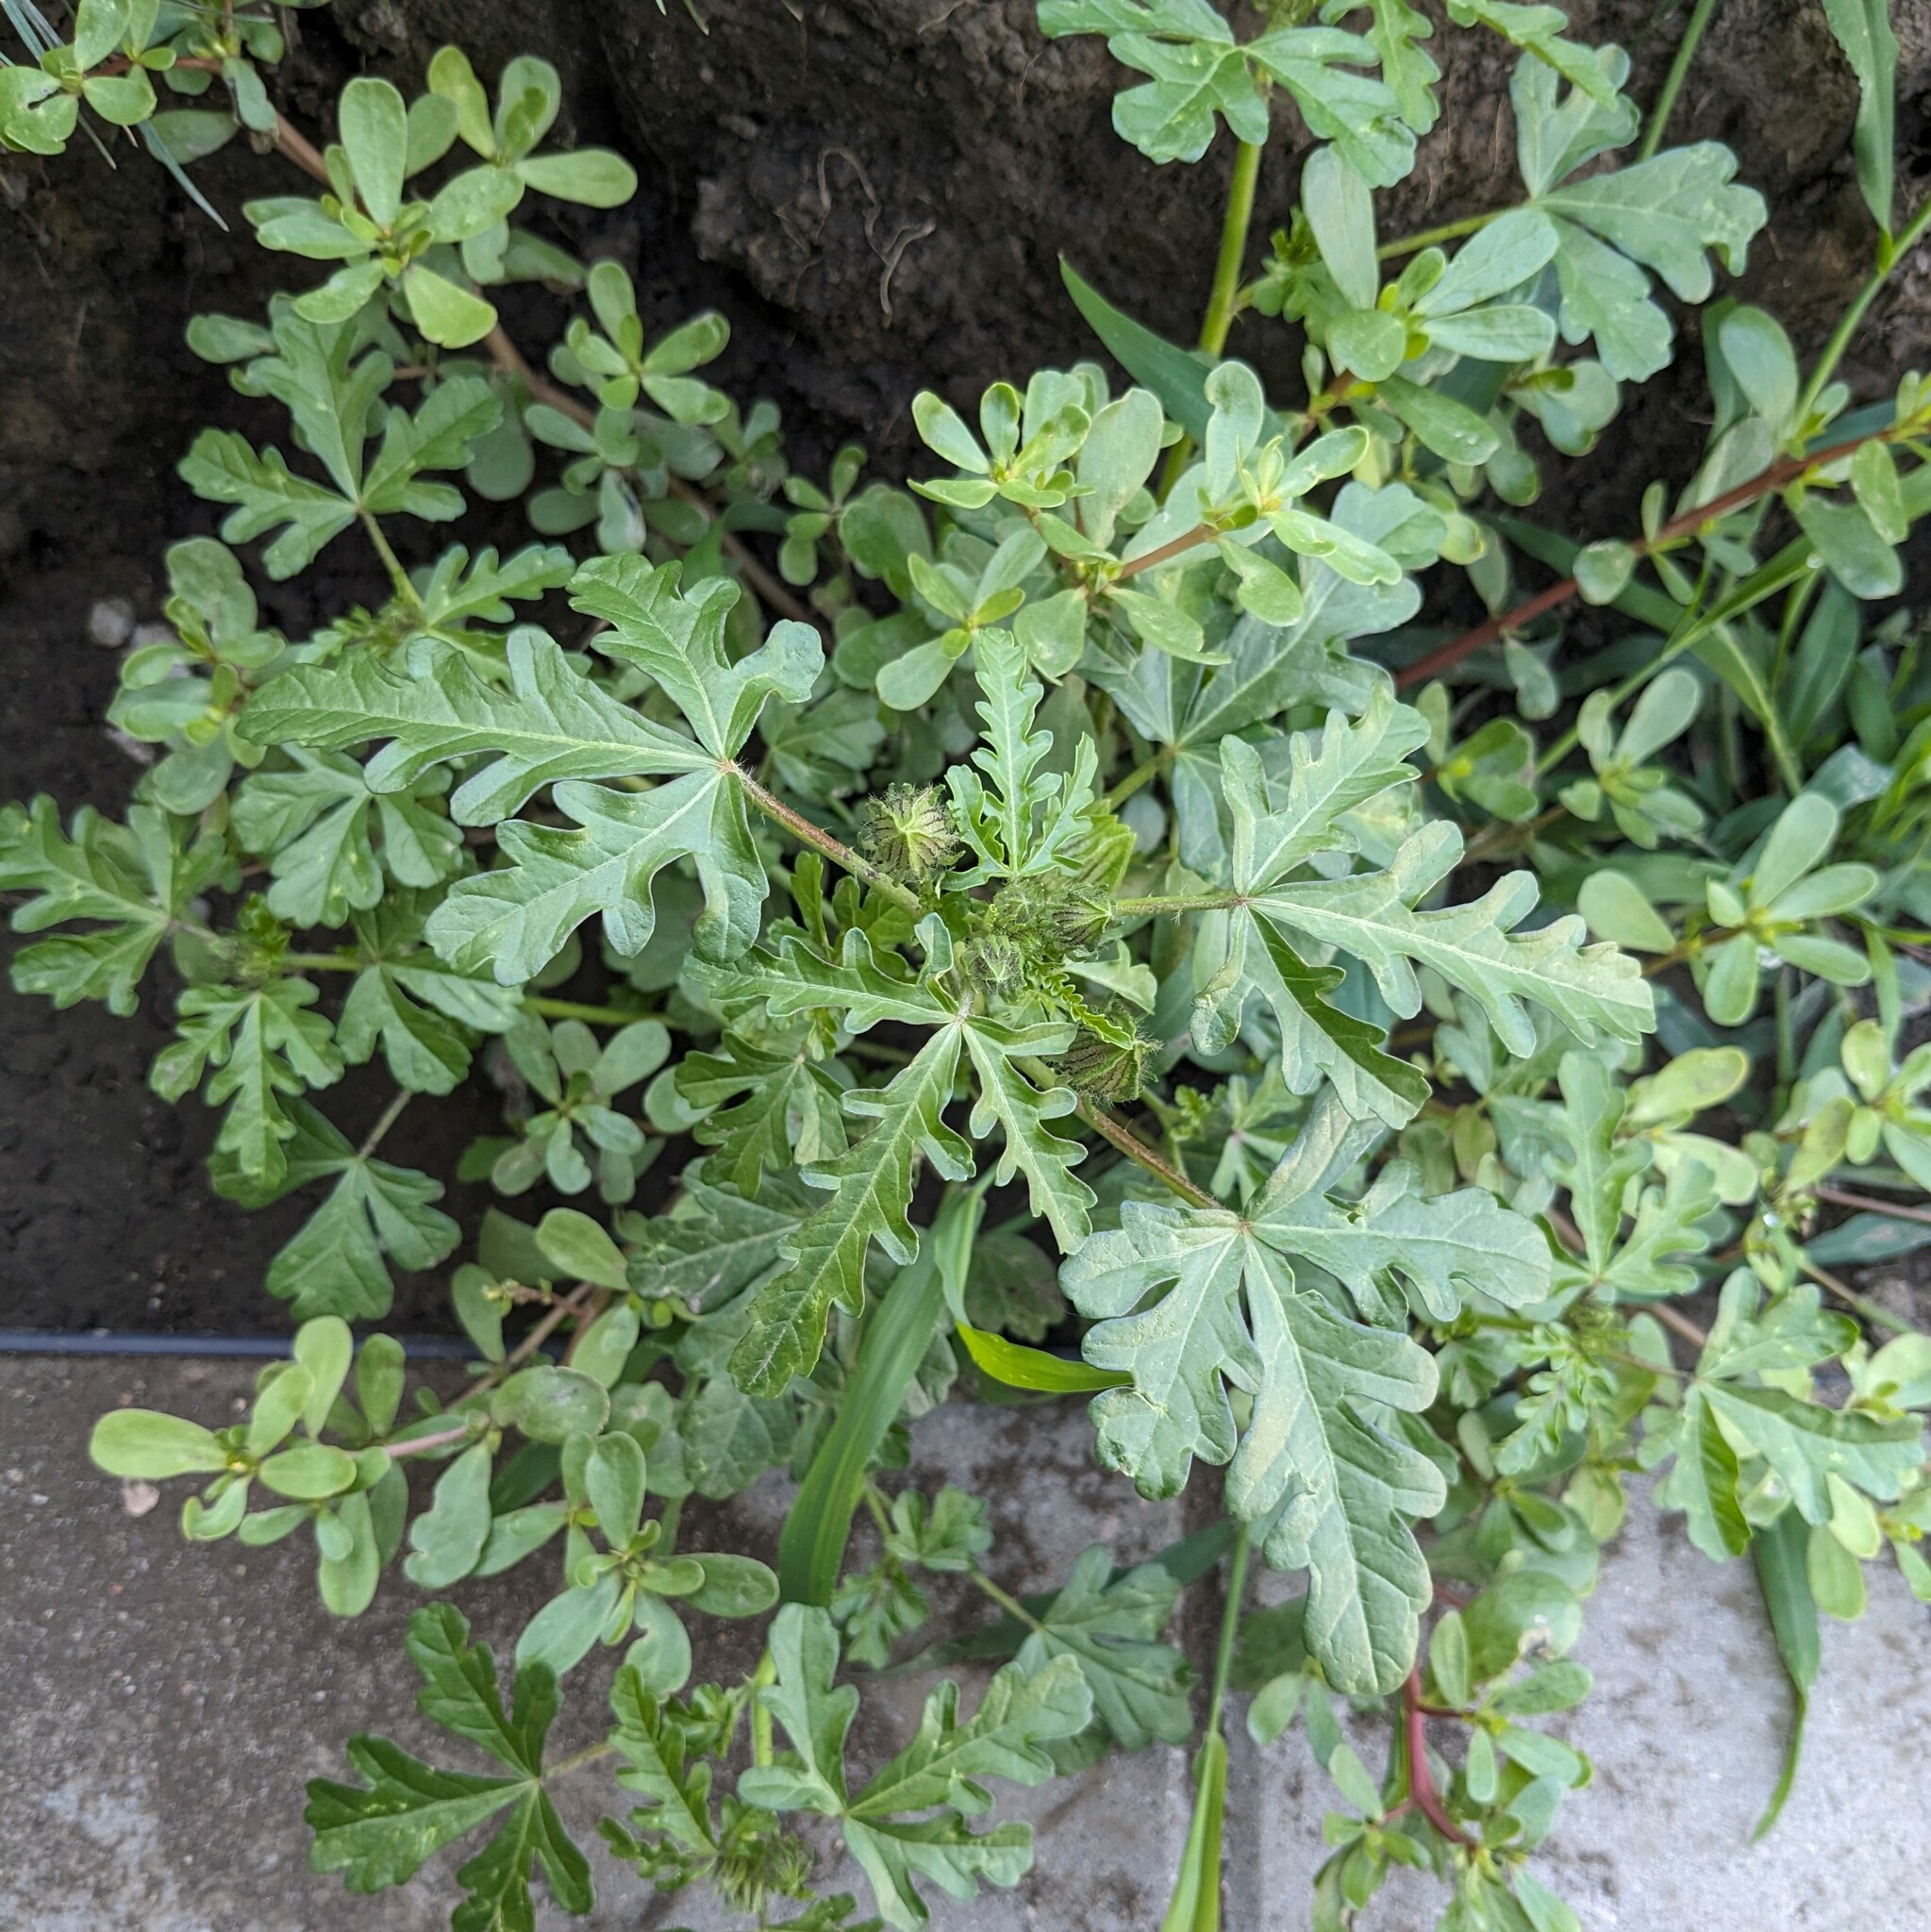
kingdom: Plantae
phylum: Tracheophyta
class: Magnoliopsida
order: Malvales
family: Malvaceae
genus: Hibiscus
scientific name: Hibiscus trionum
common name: Bladder ketmia
